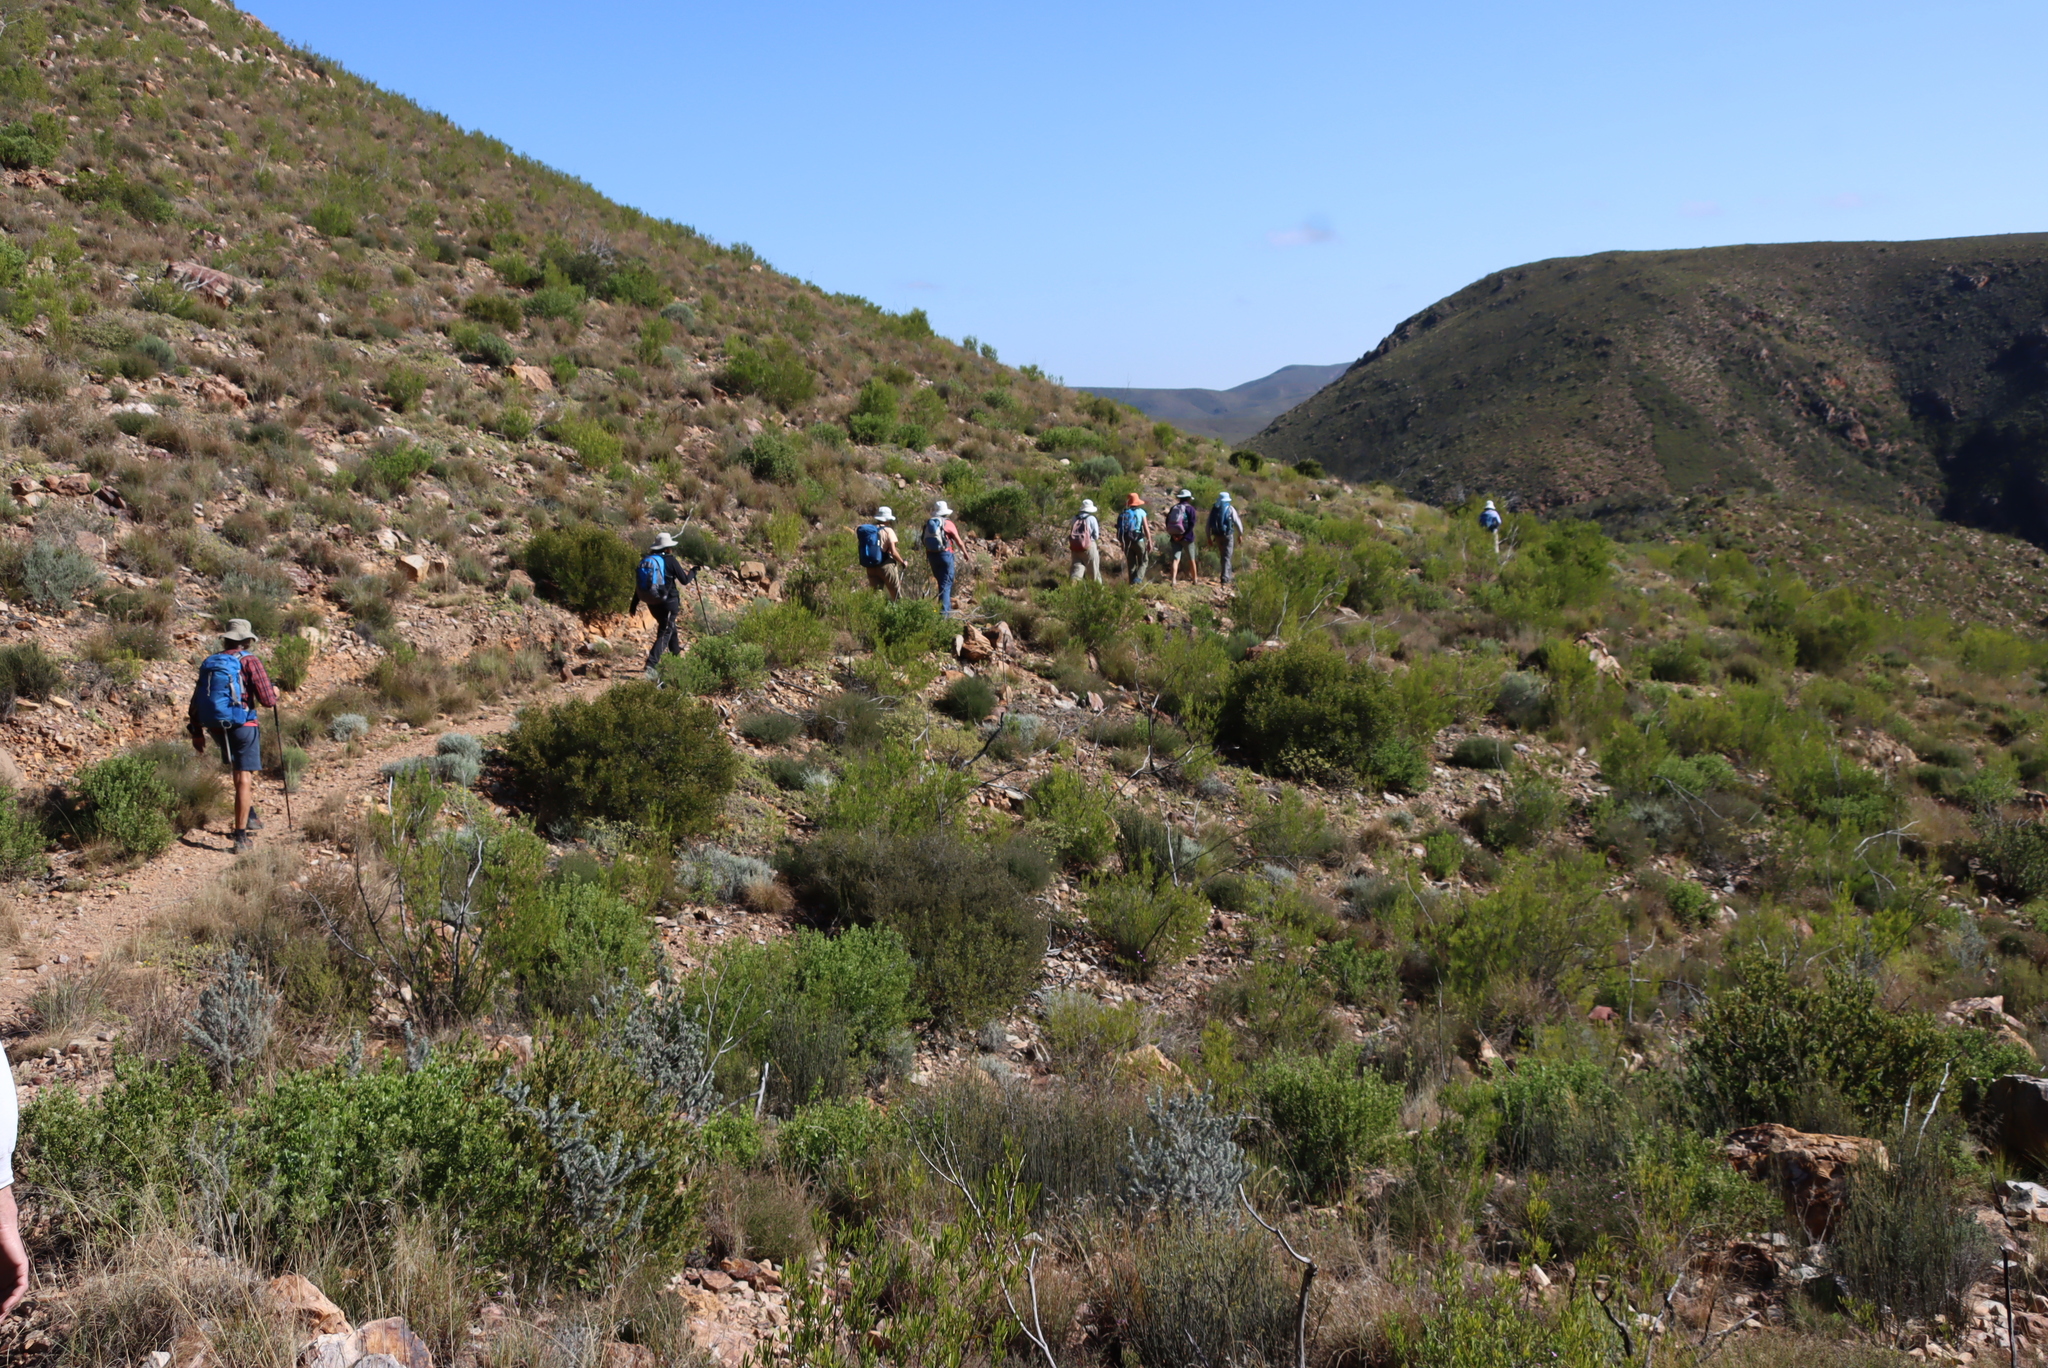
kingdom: Plantae
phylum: Tracheophyta
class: Magnoliopsida
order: Sapindales
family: Sapindaceae
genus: Dodonaea
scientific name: Dodonaea viscosa
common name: Hopbush
